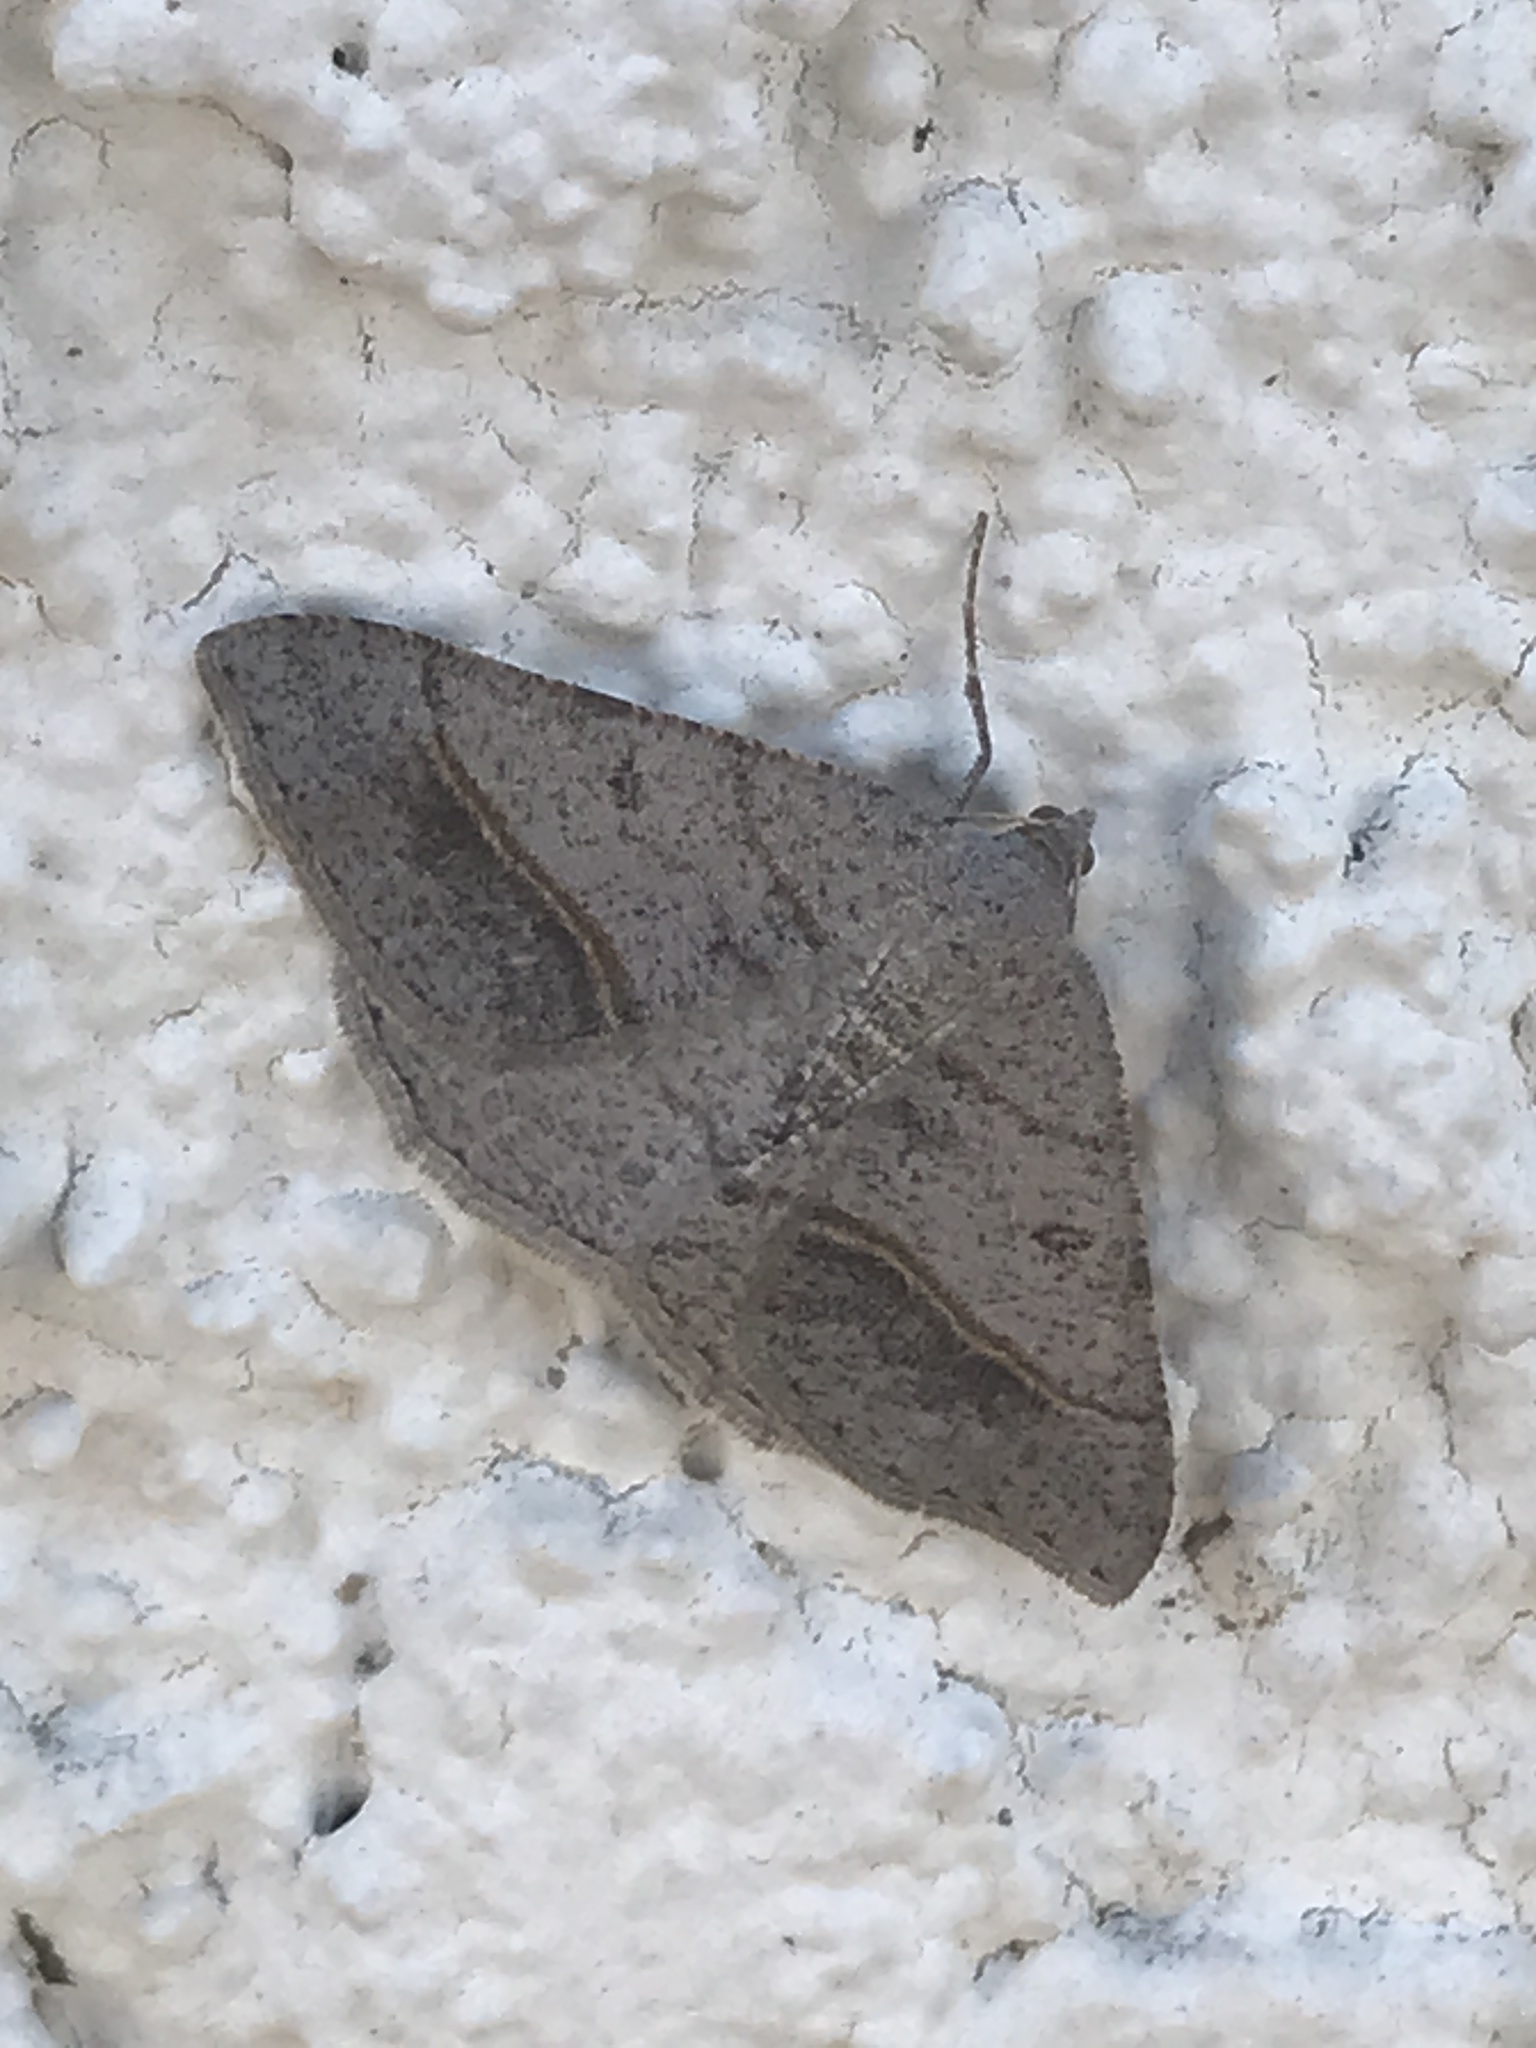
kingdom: Animalia
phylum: Arthropoda
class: Insecta
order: Lepidoptera
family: Geometridae
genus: Digrammia
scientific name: Digrammia neptaria
